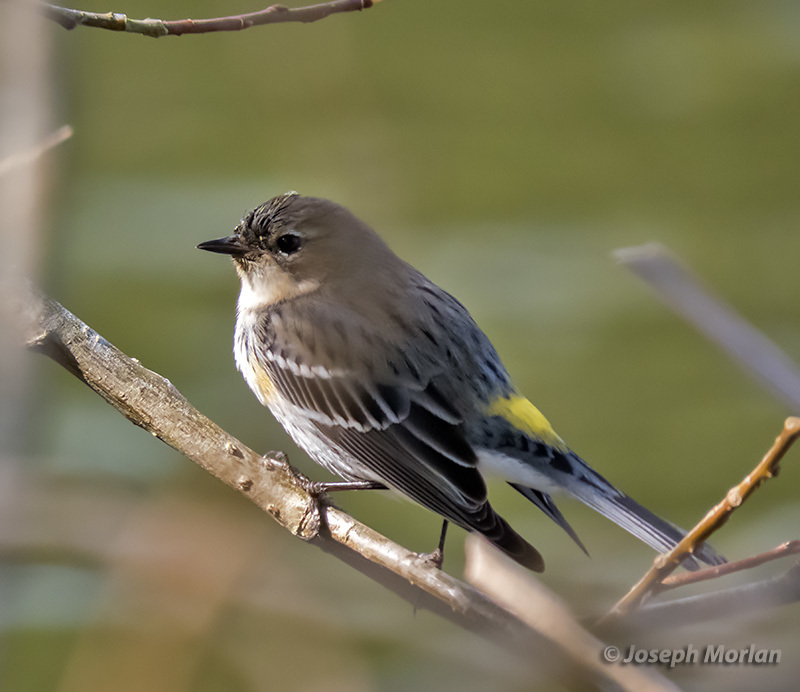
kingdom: Animalia
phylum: Chordata
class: Aves
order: Passeriformes
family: Parulidae
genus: Setophaga
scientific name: Setophaga coronata
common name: Myrtle warbler
